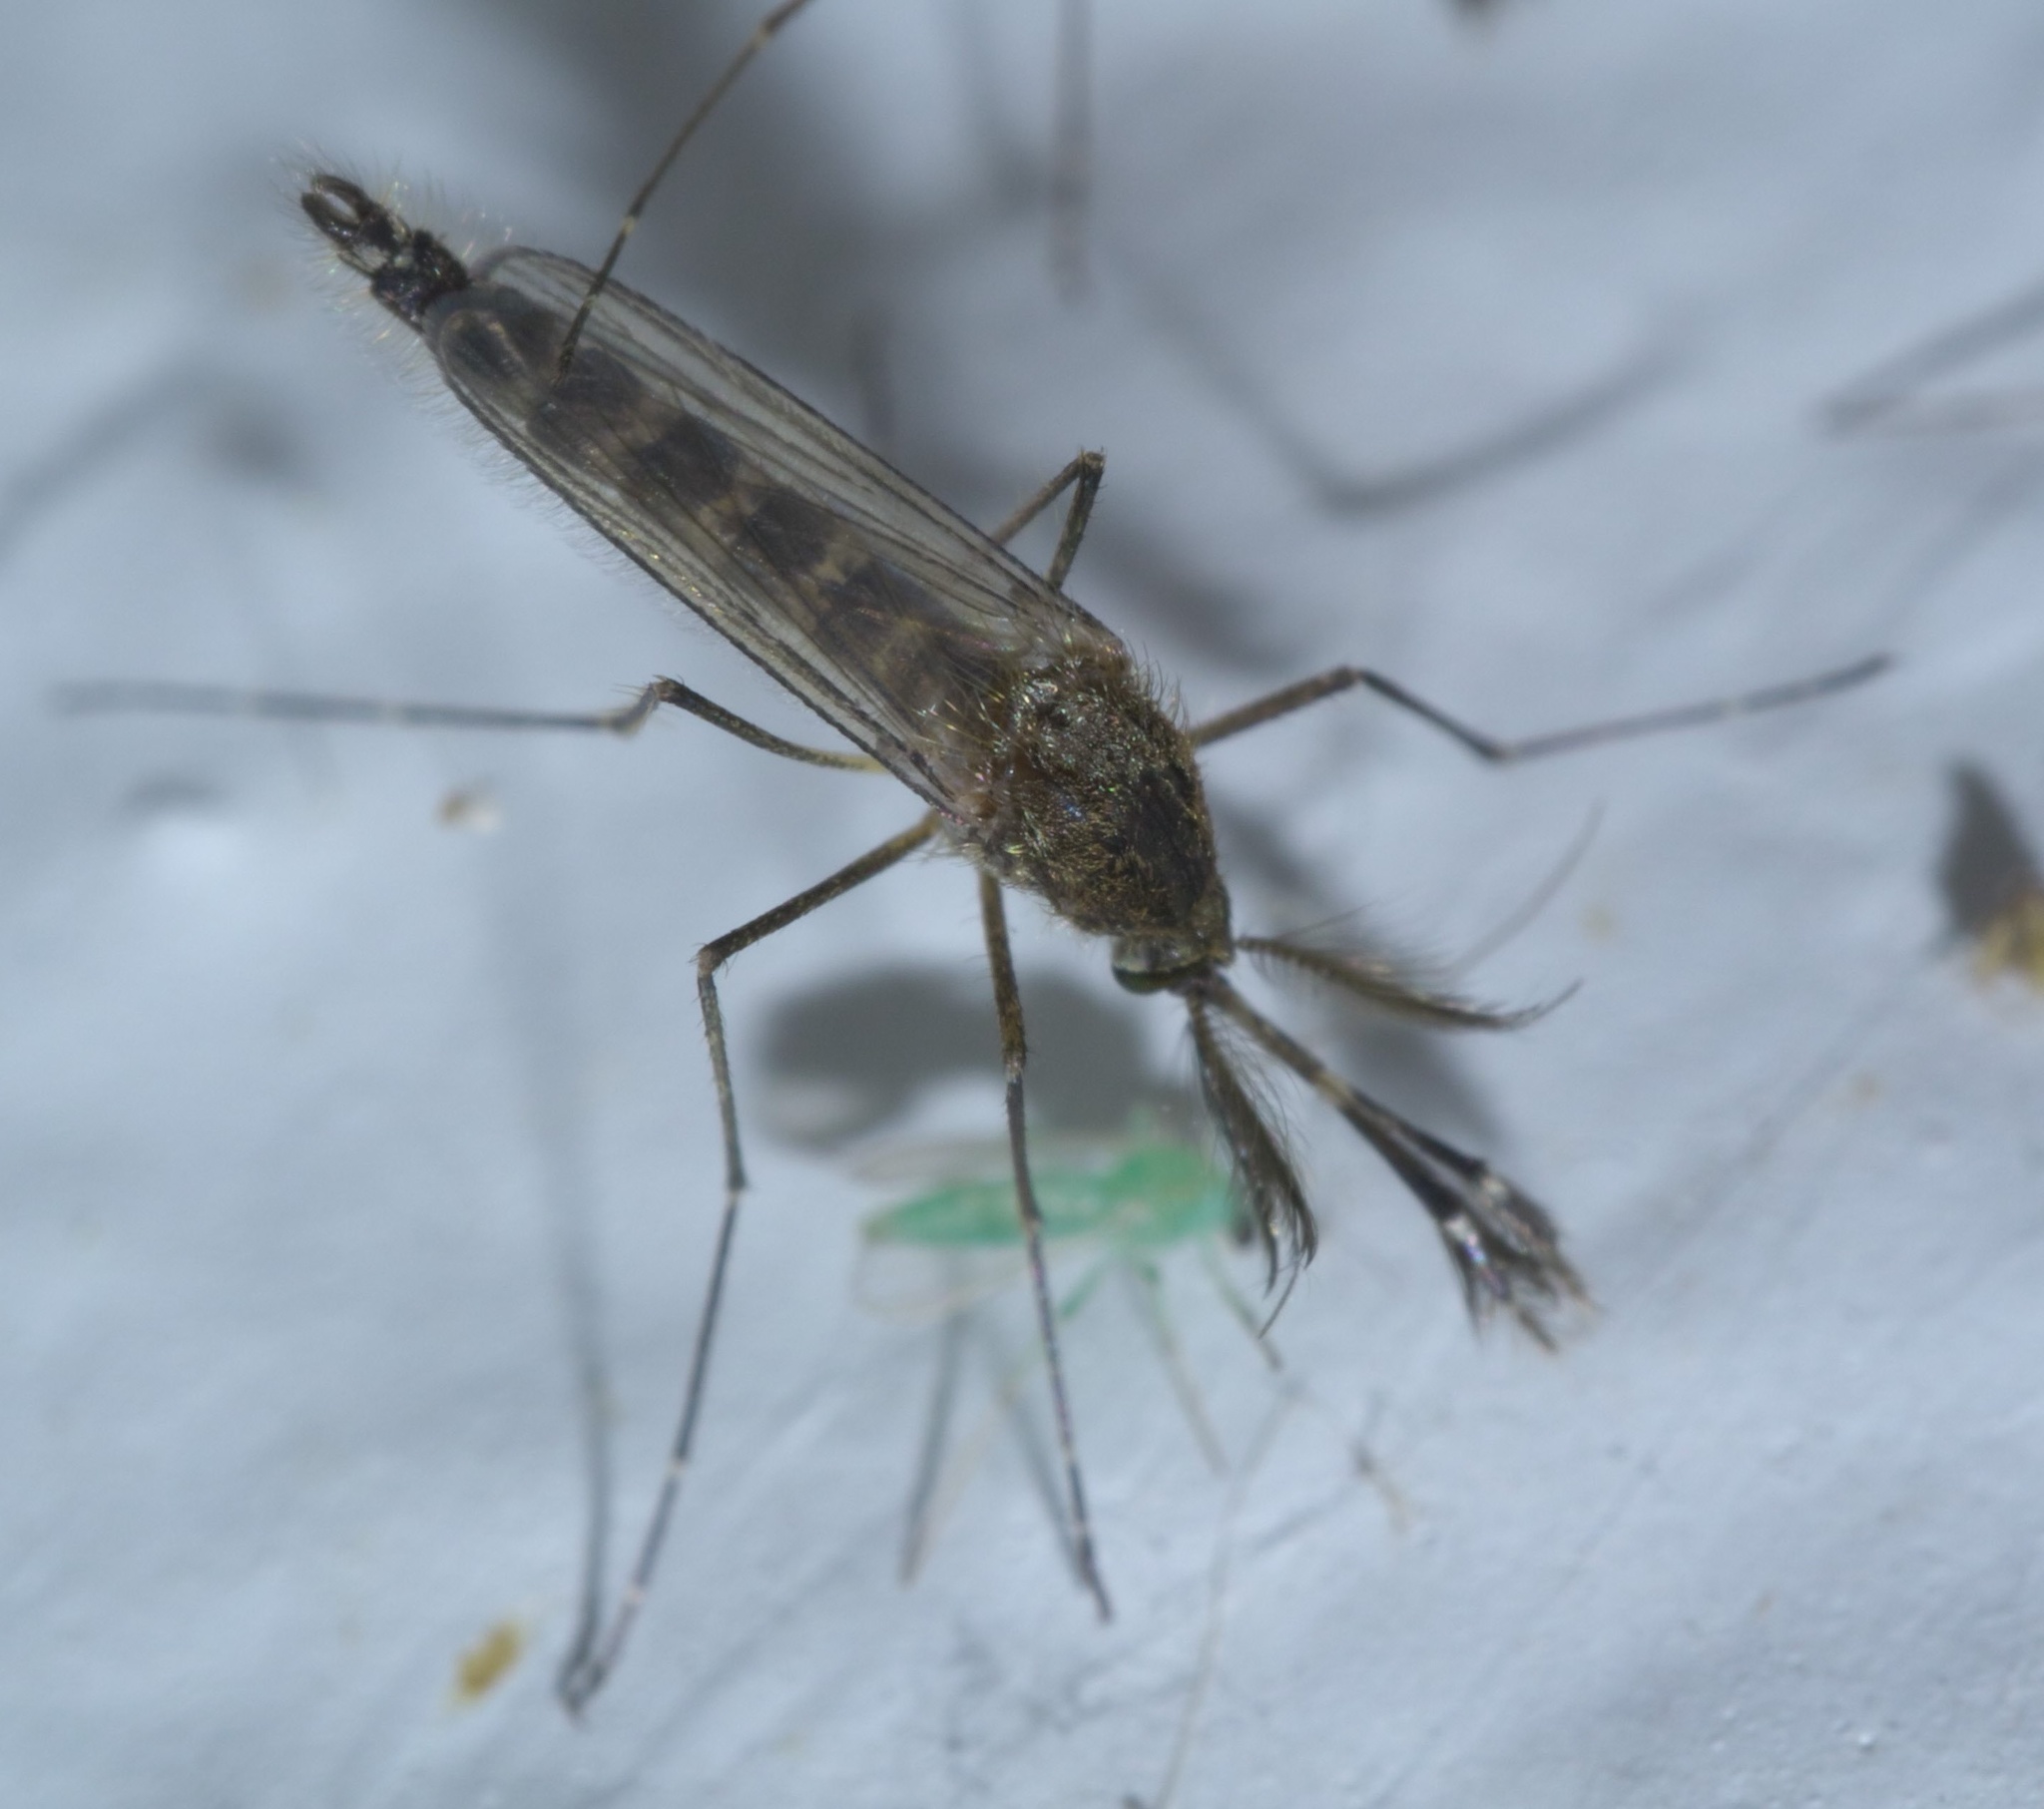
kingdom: Animalia
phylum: Arthropoda
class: Insecta
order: Diptera
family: Culicidae
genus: Aedes
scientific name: Aedes vexans
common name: Inland floodwater mosquito
